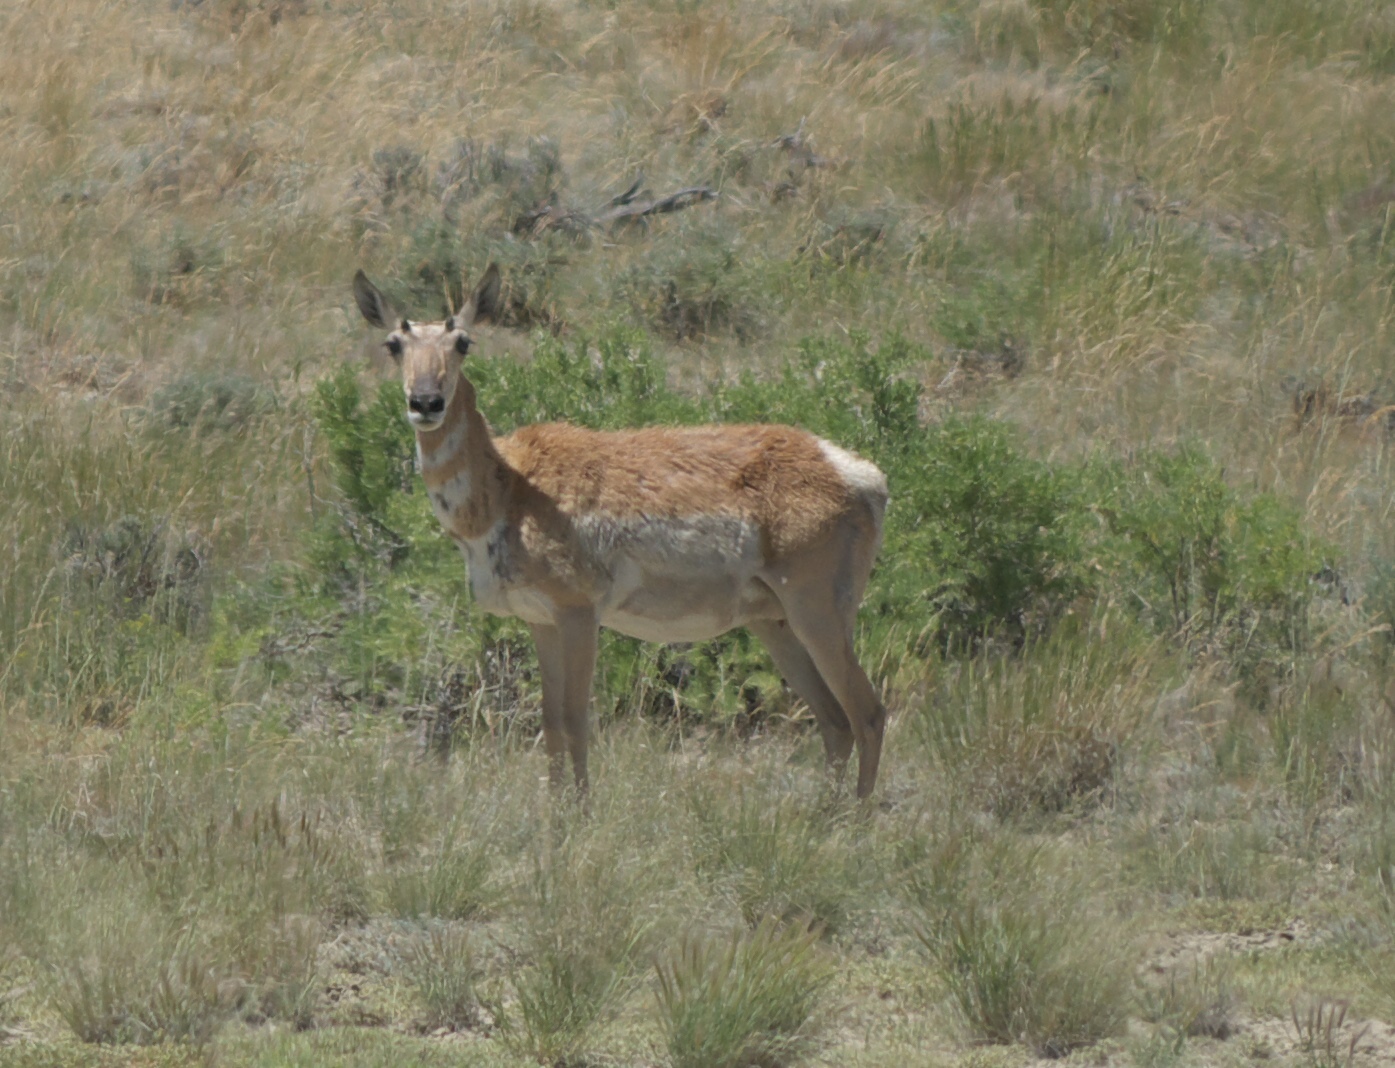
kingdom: Animalia
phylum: Chordata
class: Mammalia
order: Artiodactyla
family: Antilocapridae
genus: Antilocapra
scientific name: Antilocapra americana
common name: Pronghorn
